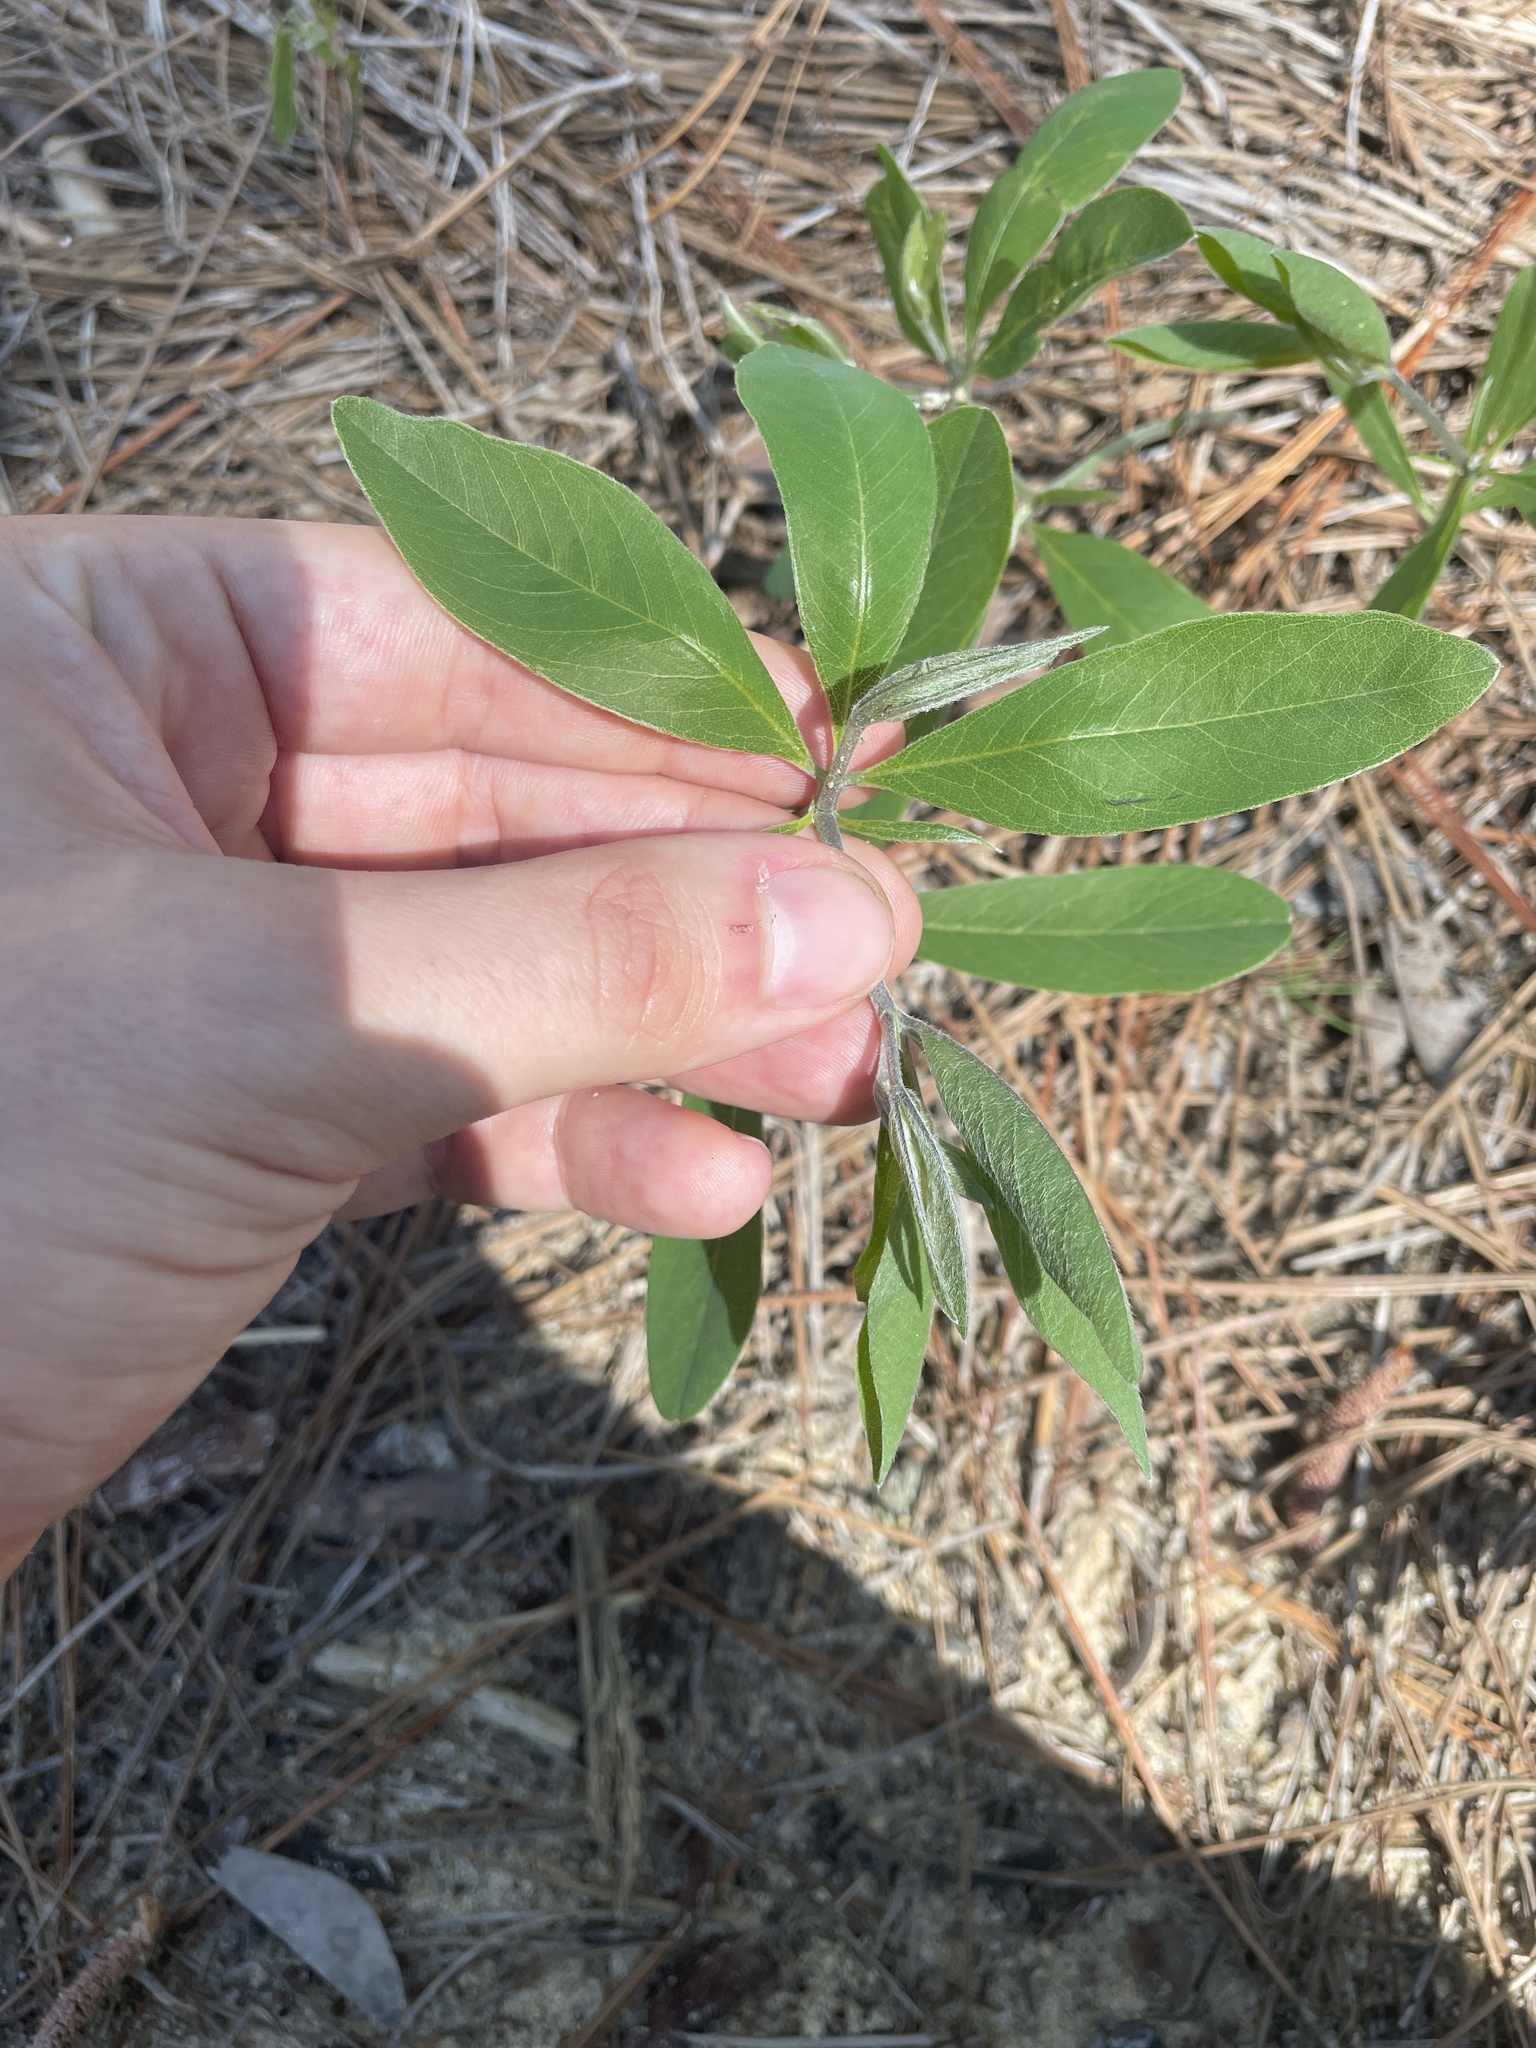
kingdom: Plantae
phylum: Tracheophyta
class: Magnoliopsida
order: Fabales
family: Fabaceae
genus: Baptisia
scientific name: Baptisia cinerea
